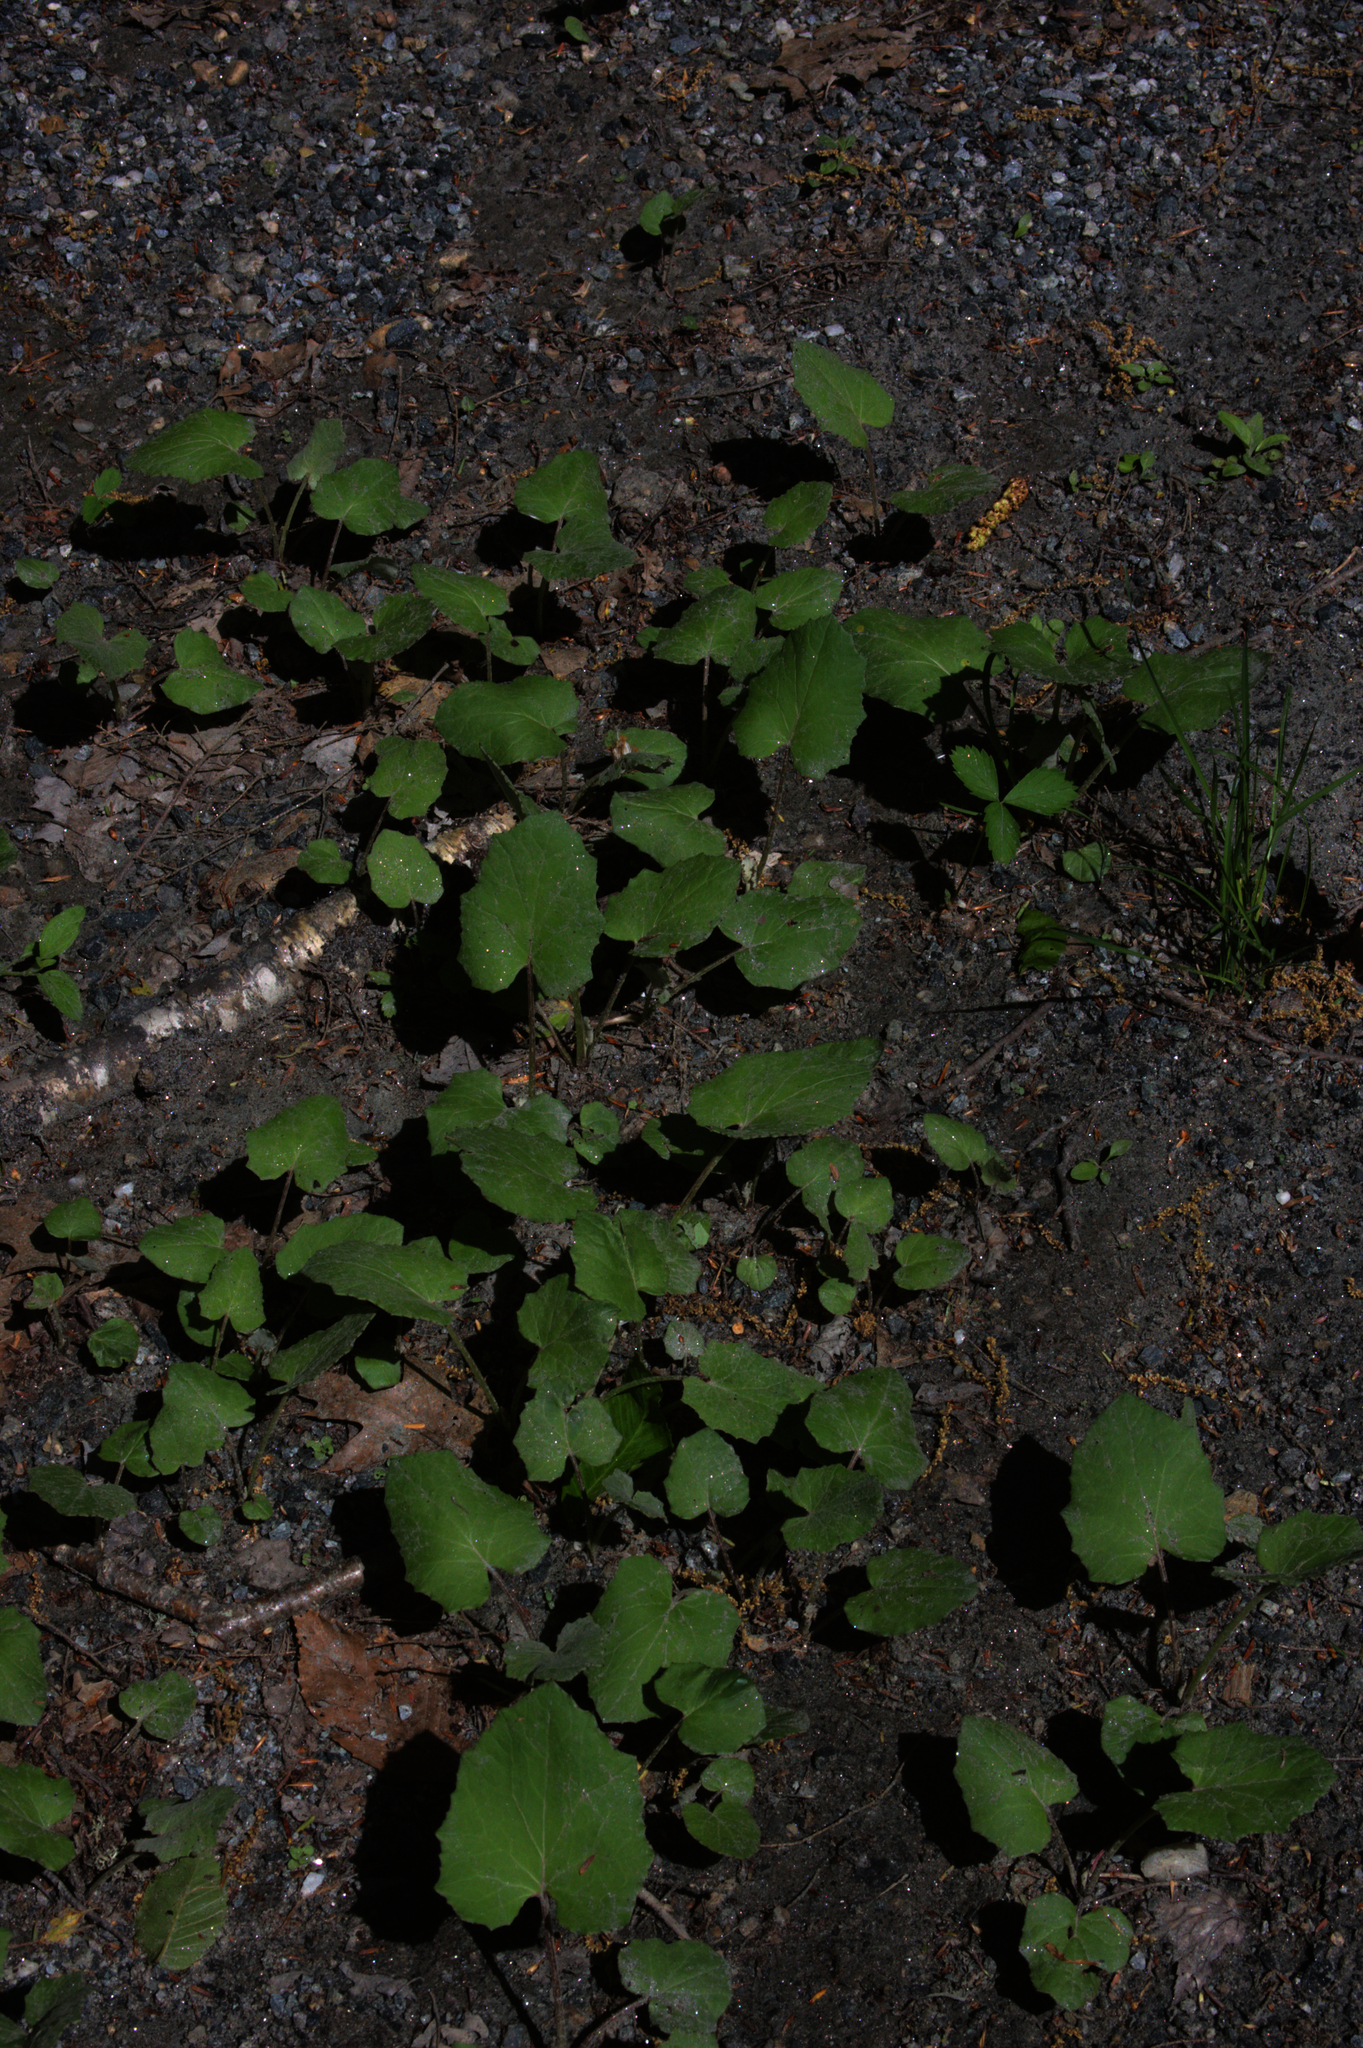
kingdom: Plantae
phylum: Tracheophyta
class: Magnoliopsida
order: Asterales
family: Asteraceae
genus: Tussilago
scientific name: Tussilago farfara
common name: Coltsfoot
